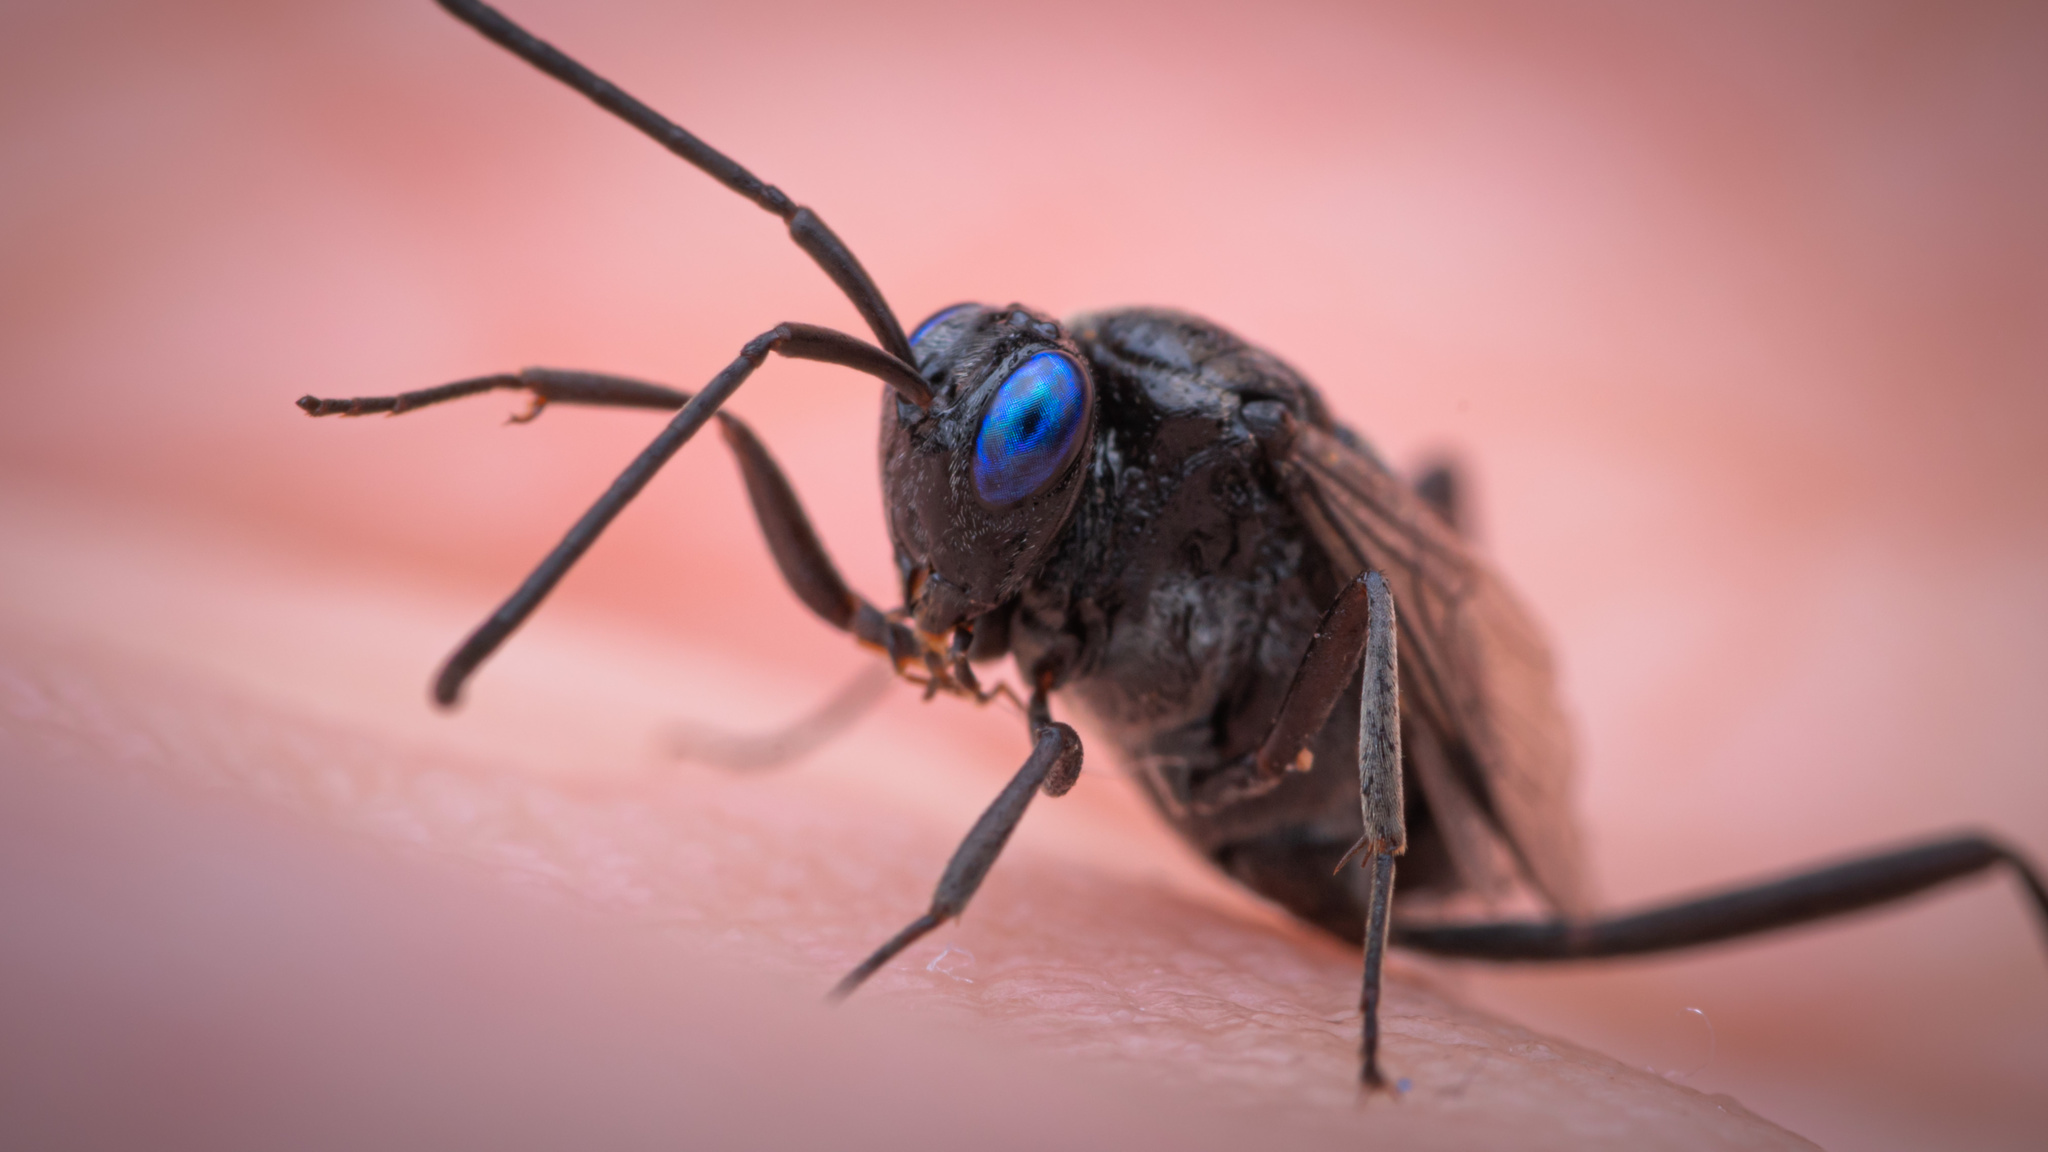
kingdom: Animalia
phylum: Arthropoda
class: Insecta
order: Hymenoptera
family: Evaniidae
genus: Evania
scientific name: Evania appendigaster
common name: Ensign wasp
